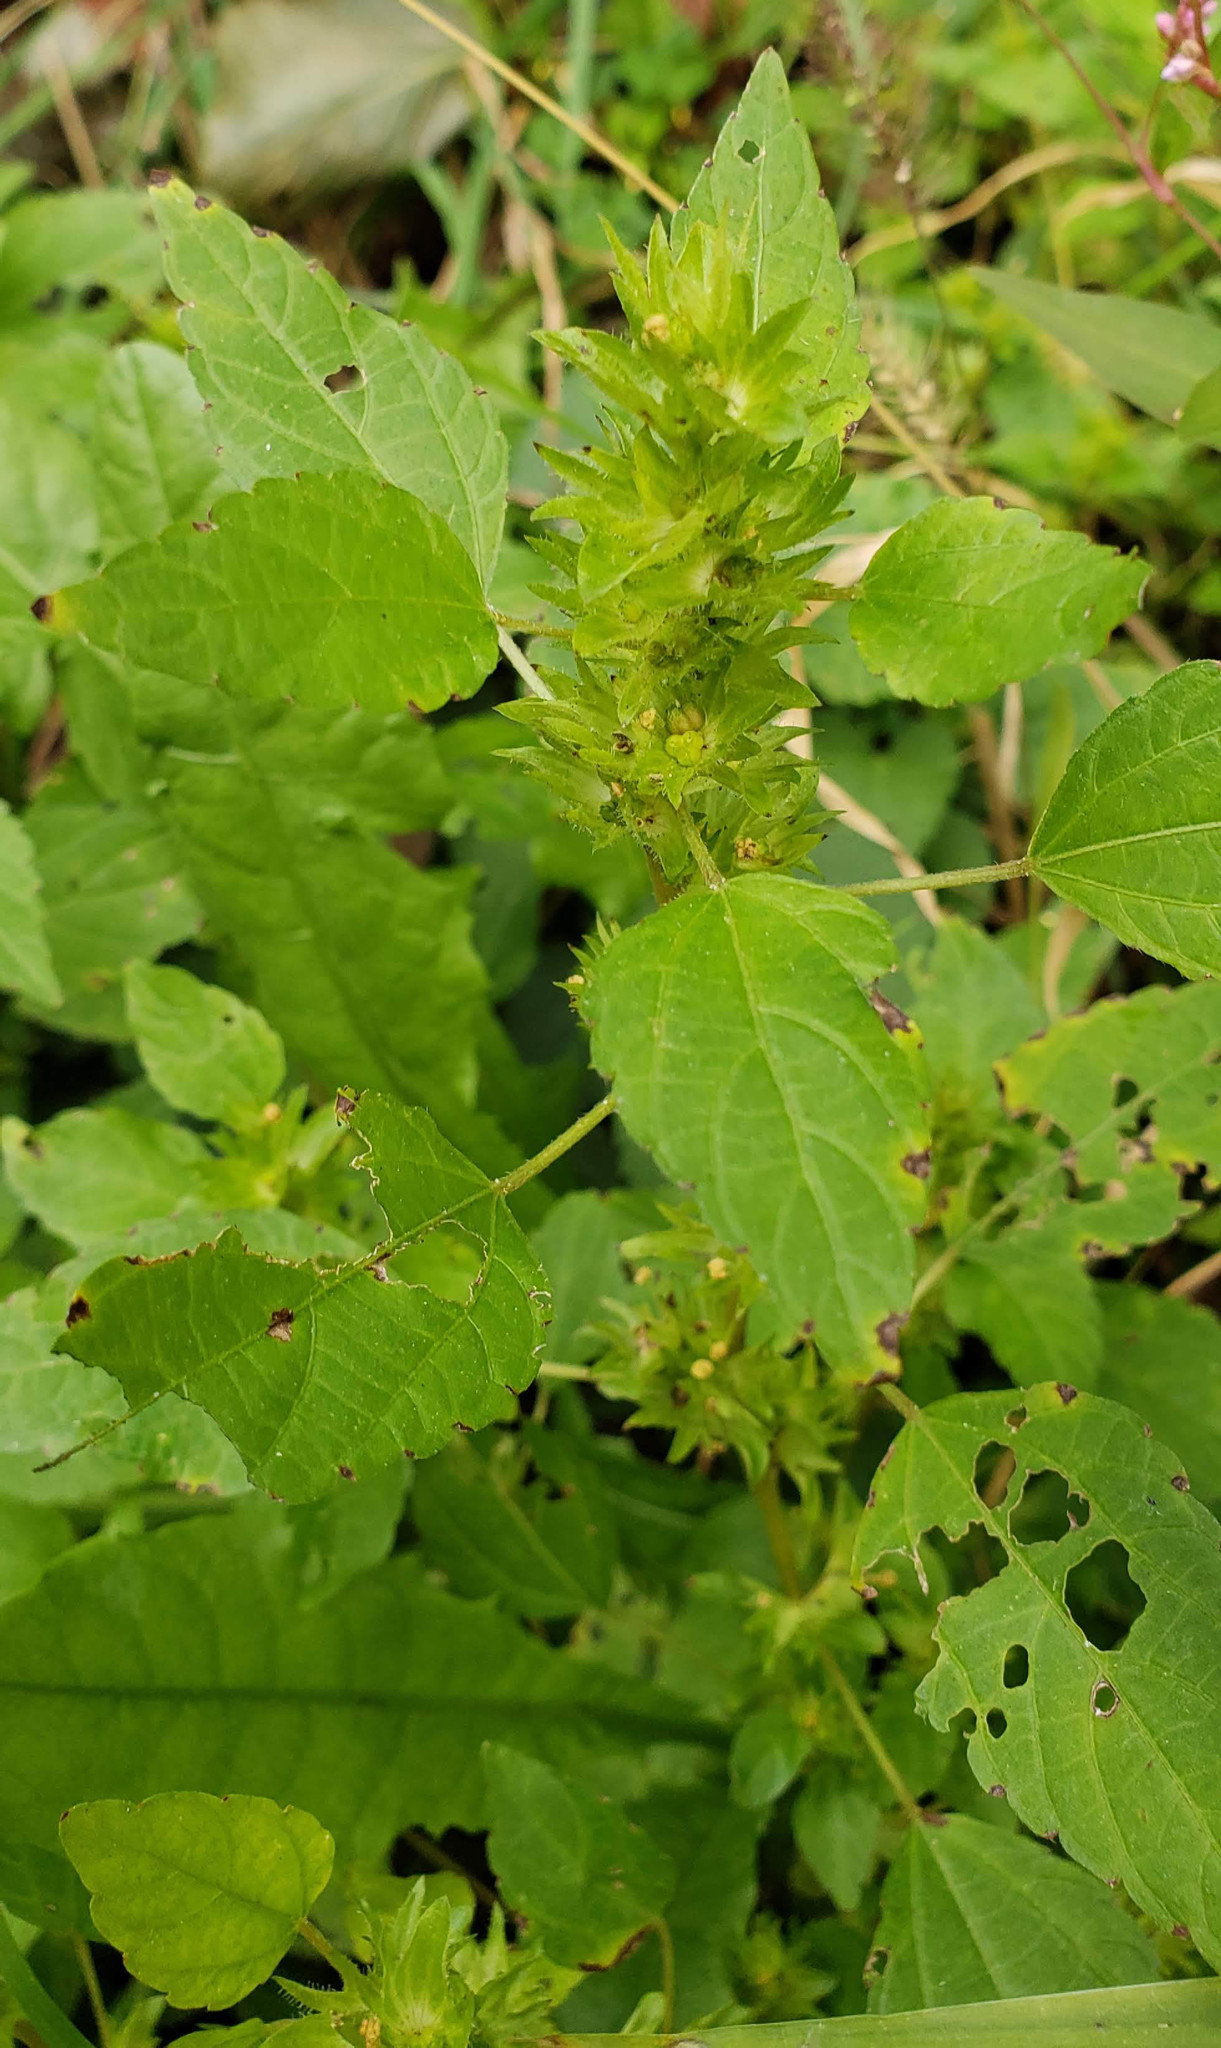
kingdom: Plantae
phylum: Tracheophyta
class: Magnoliopsida
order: Malpighiales
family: Euphorbiaceae
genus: Acalypha
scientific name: Acalypha rhomboidea
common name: Rhombic copperleaf
